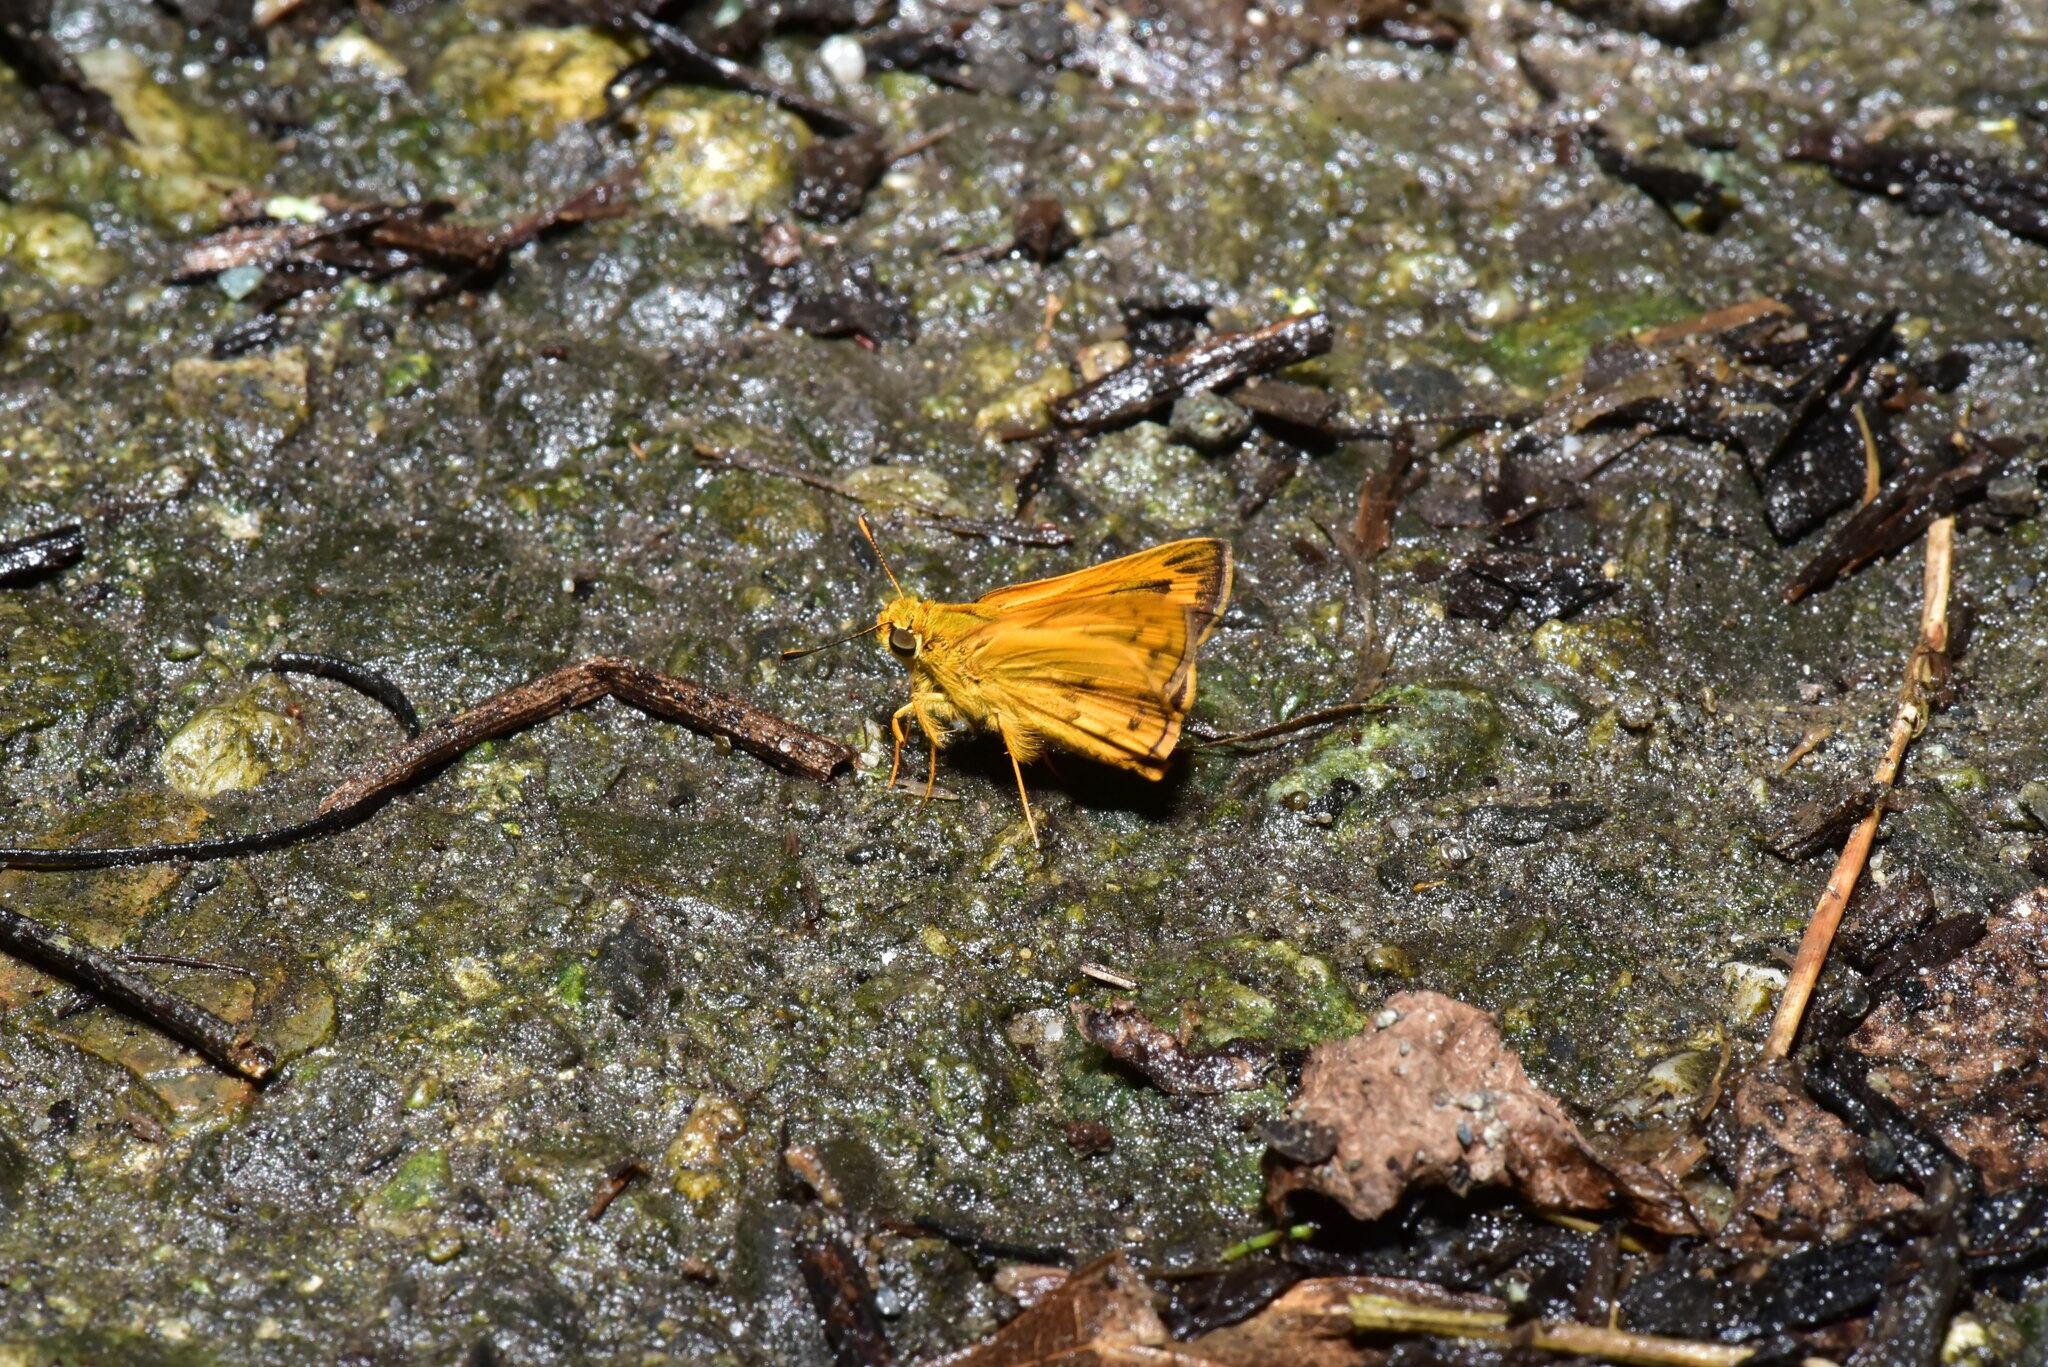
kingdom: Animalia
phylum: Arthropoda
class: Insecta
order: Lepidoptera
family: Hesperiidae
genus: Telicota
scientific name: Telicota bambusae
